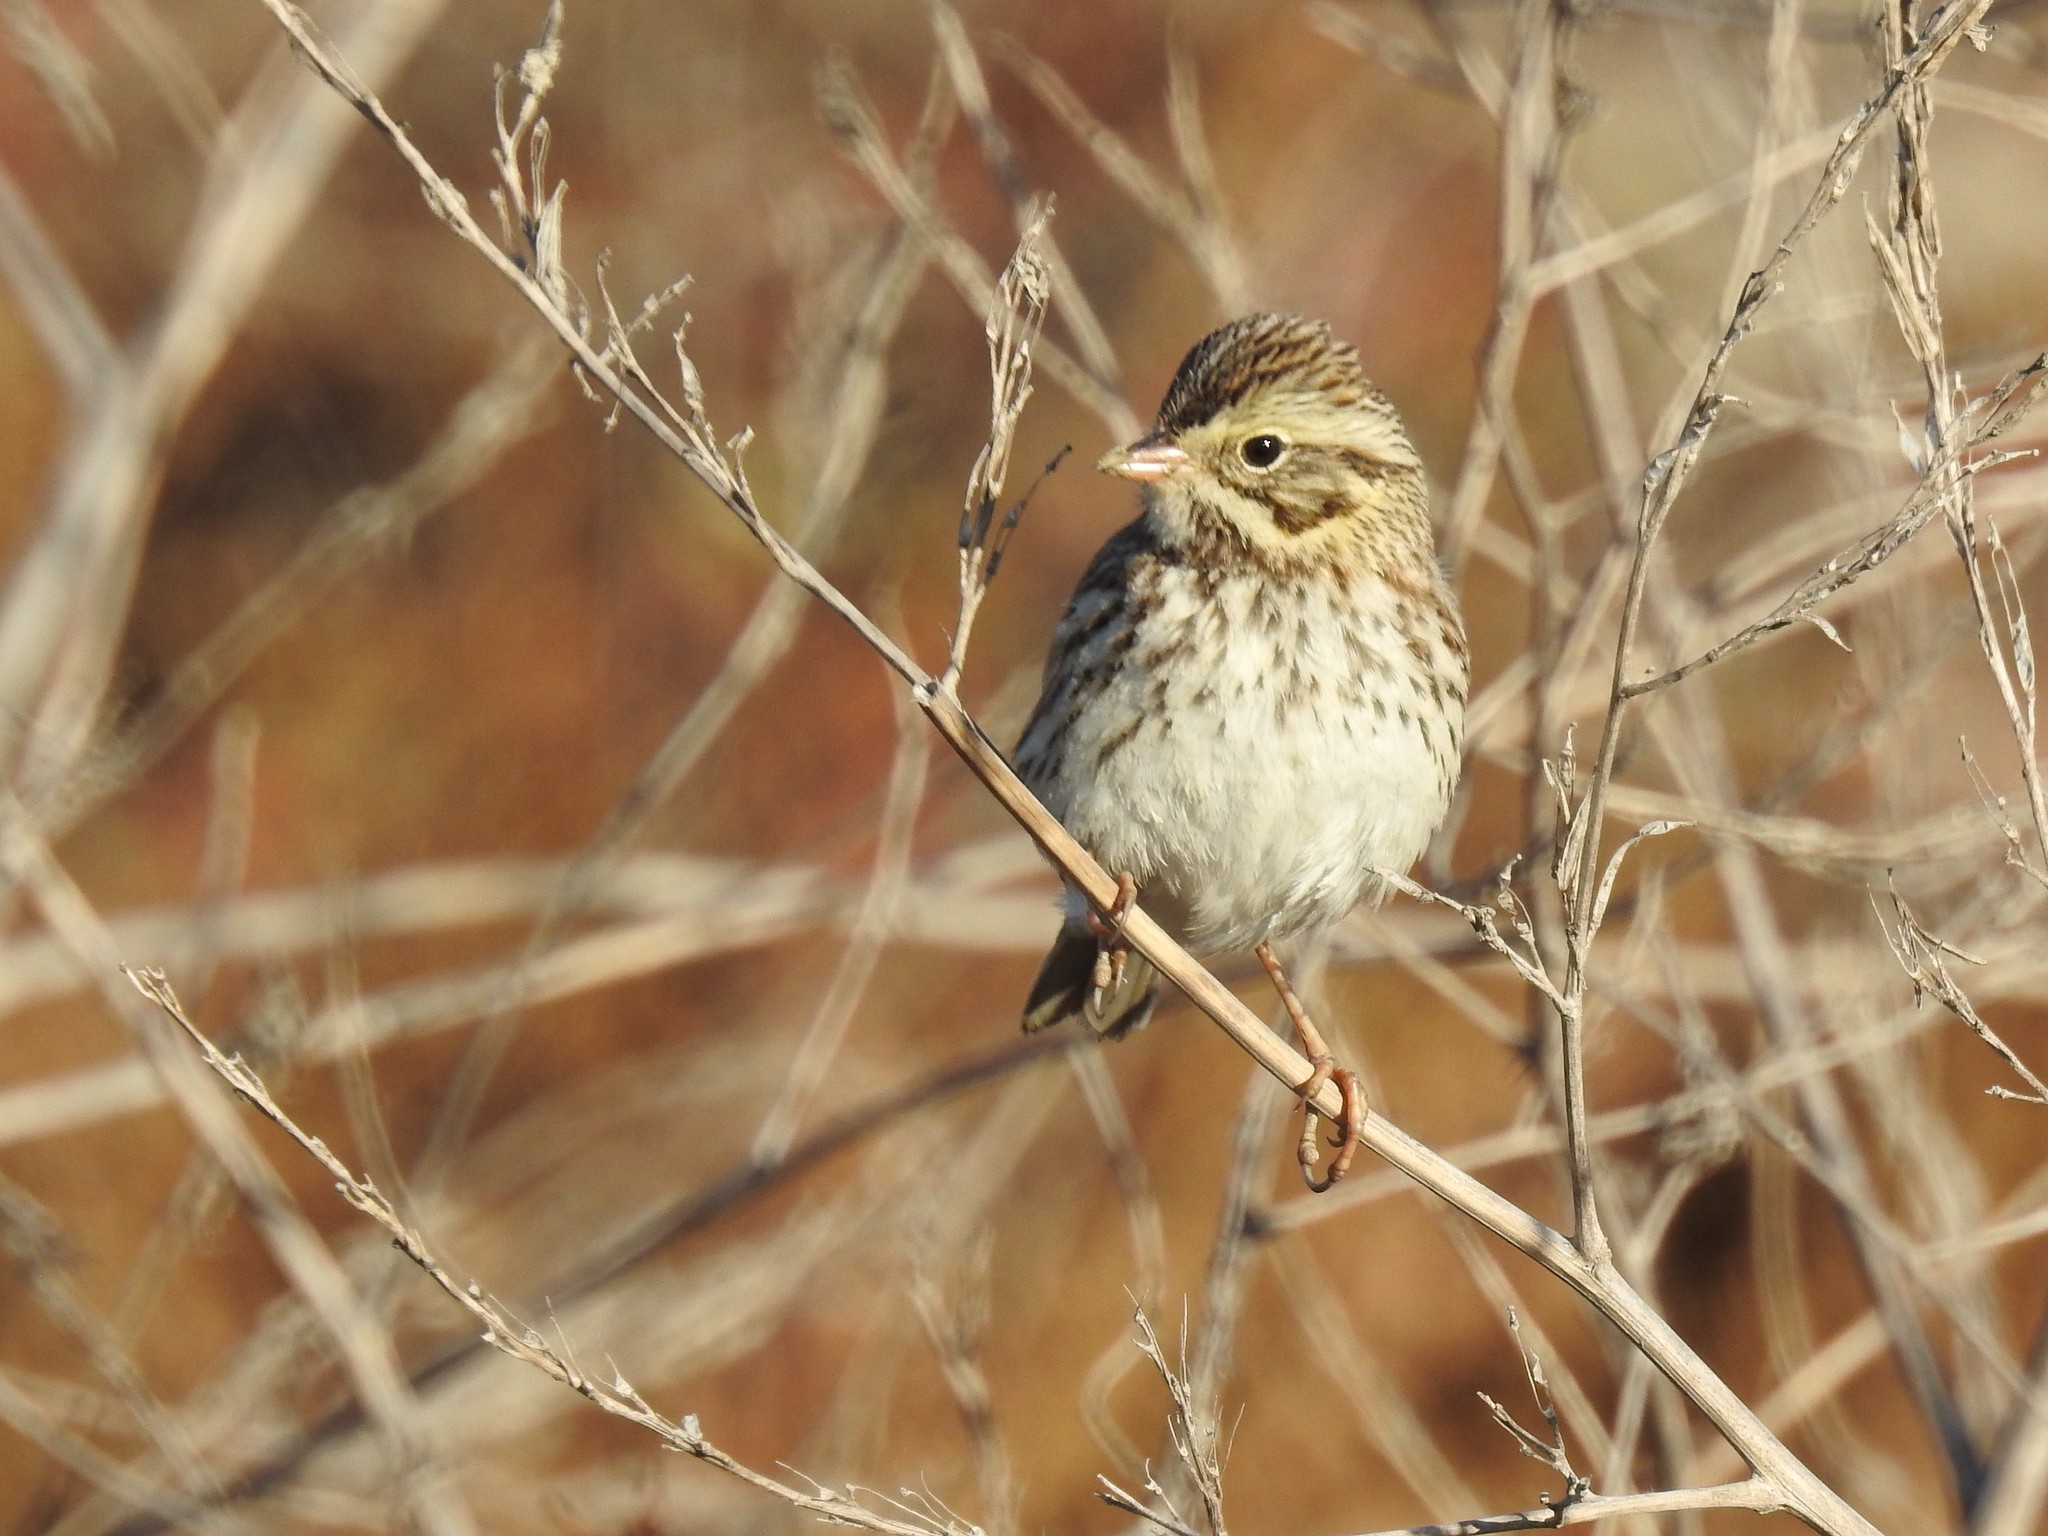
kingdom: Animalia
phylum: Chordata
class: Aves
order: Passeriformes
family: Passerellidae
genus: Passerculus
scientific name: Passerculus sandwichensis
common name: Savannah sparrow
